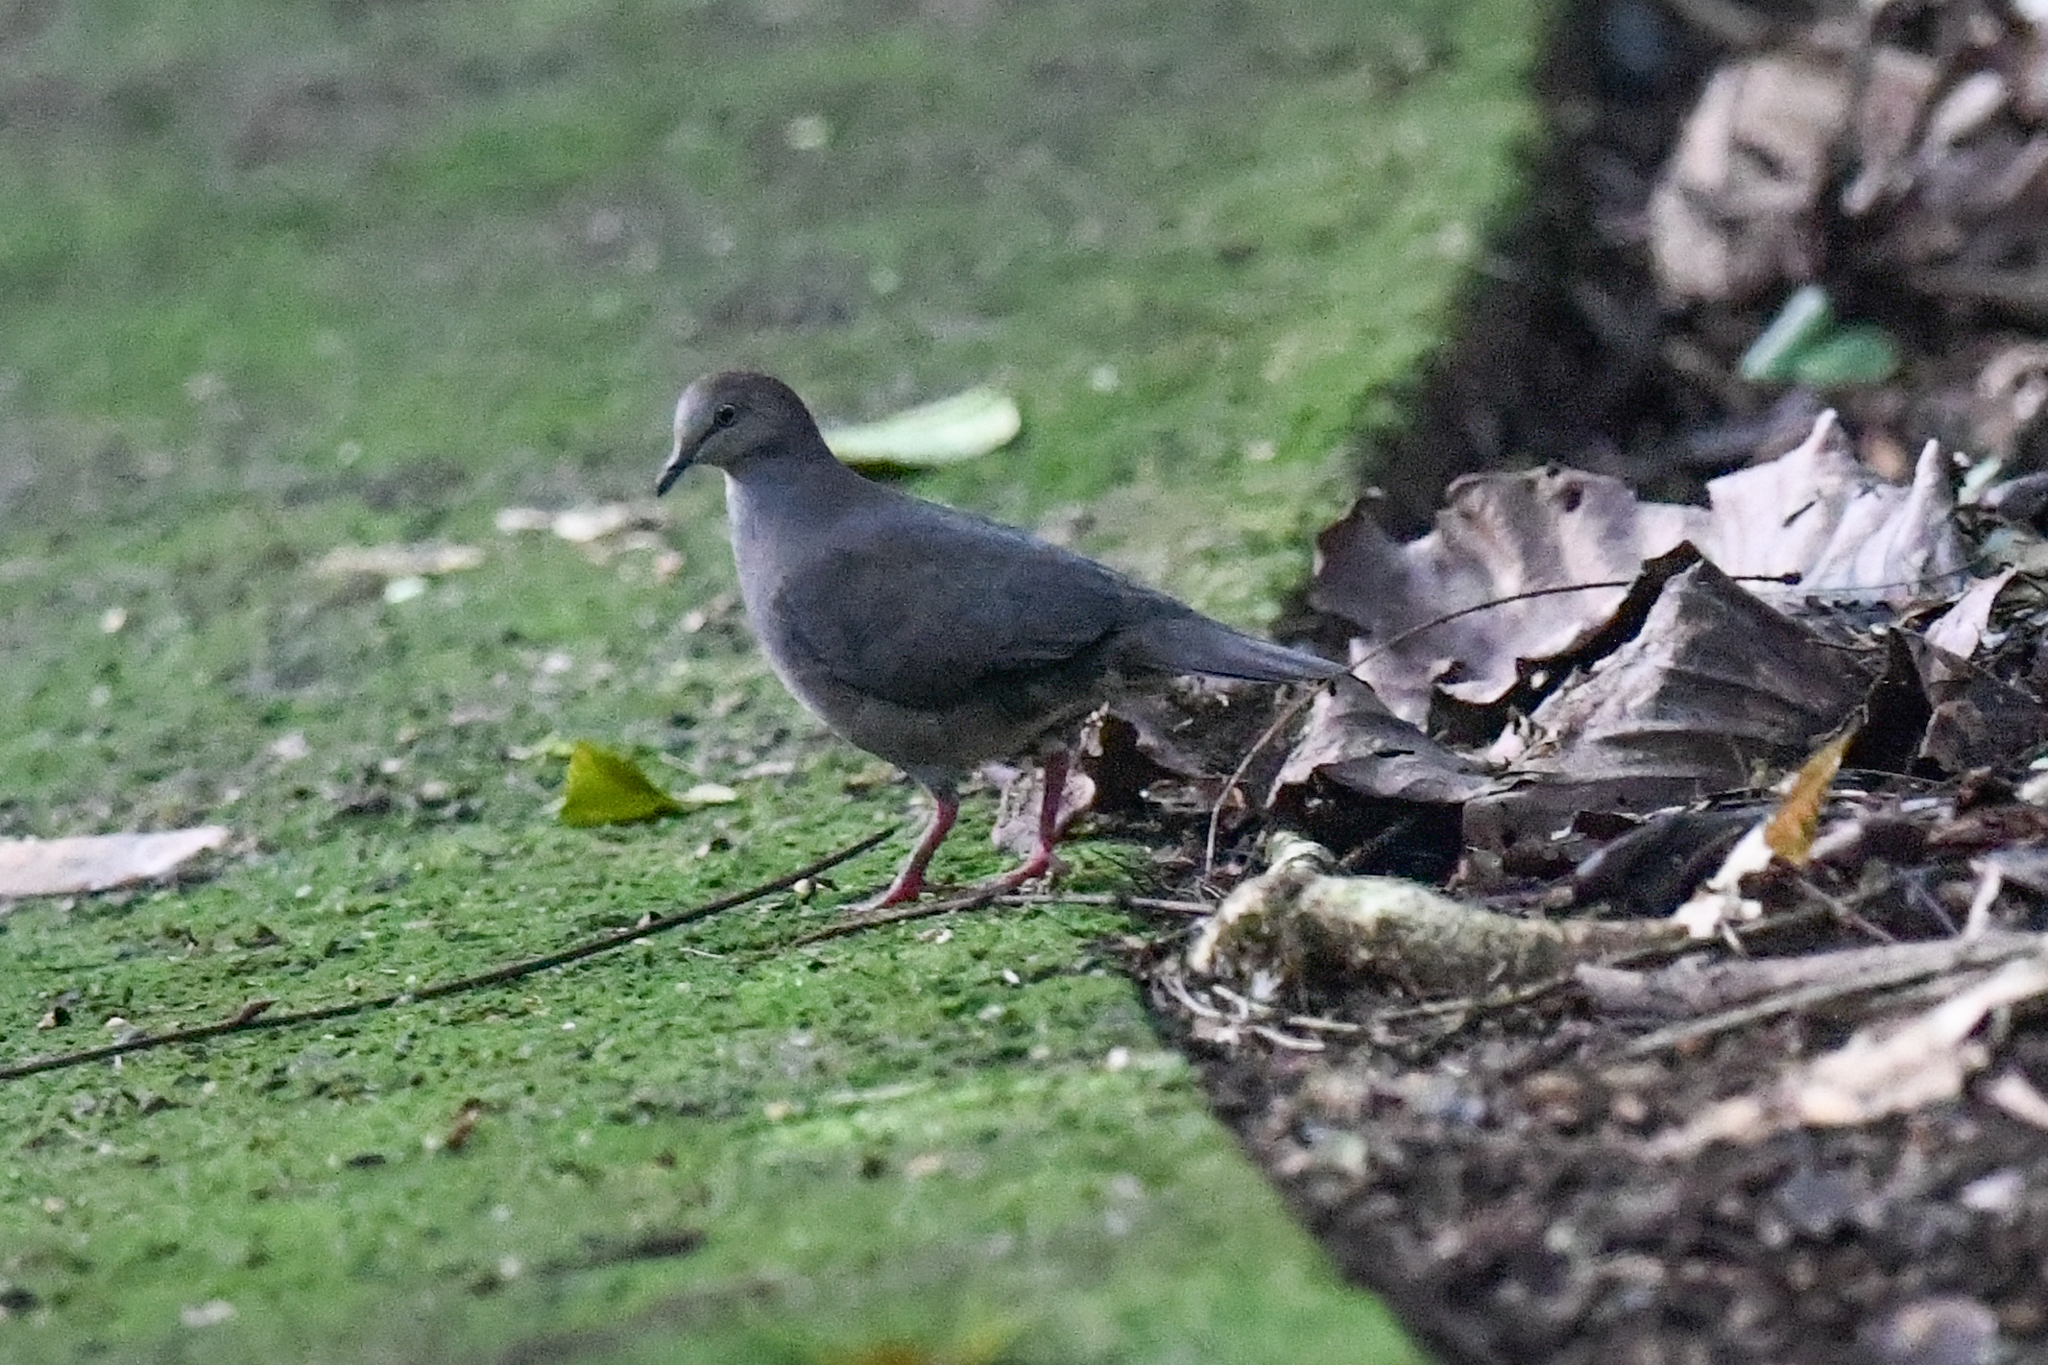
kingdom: Animalia
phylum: Chordata
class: Aves
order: Columbiformes
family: Columbidae
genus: Leptotila
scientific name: Leptotila cassinii
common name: Grey-chested dove
